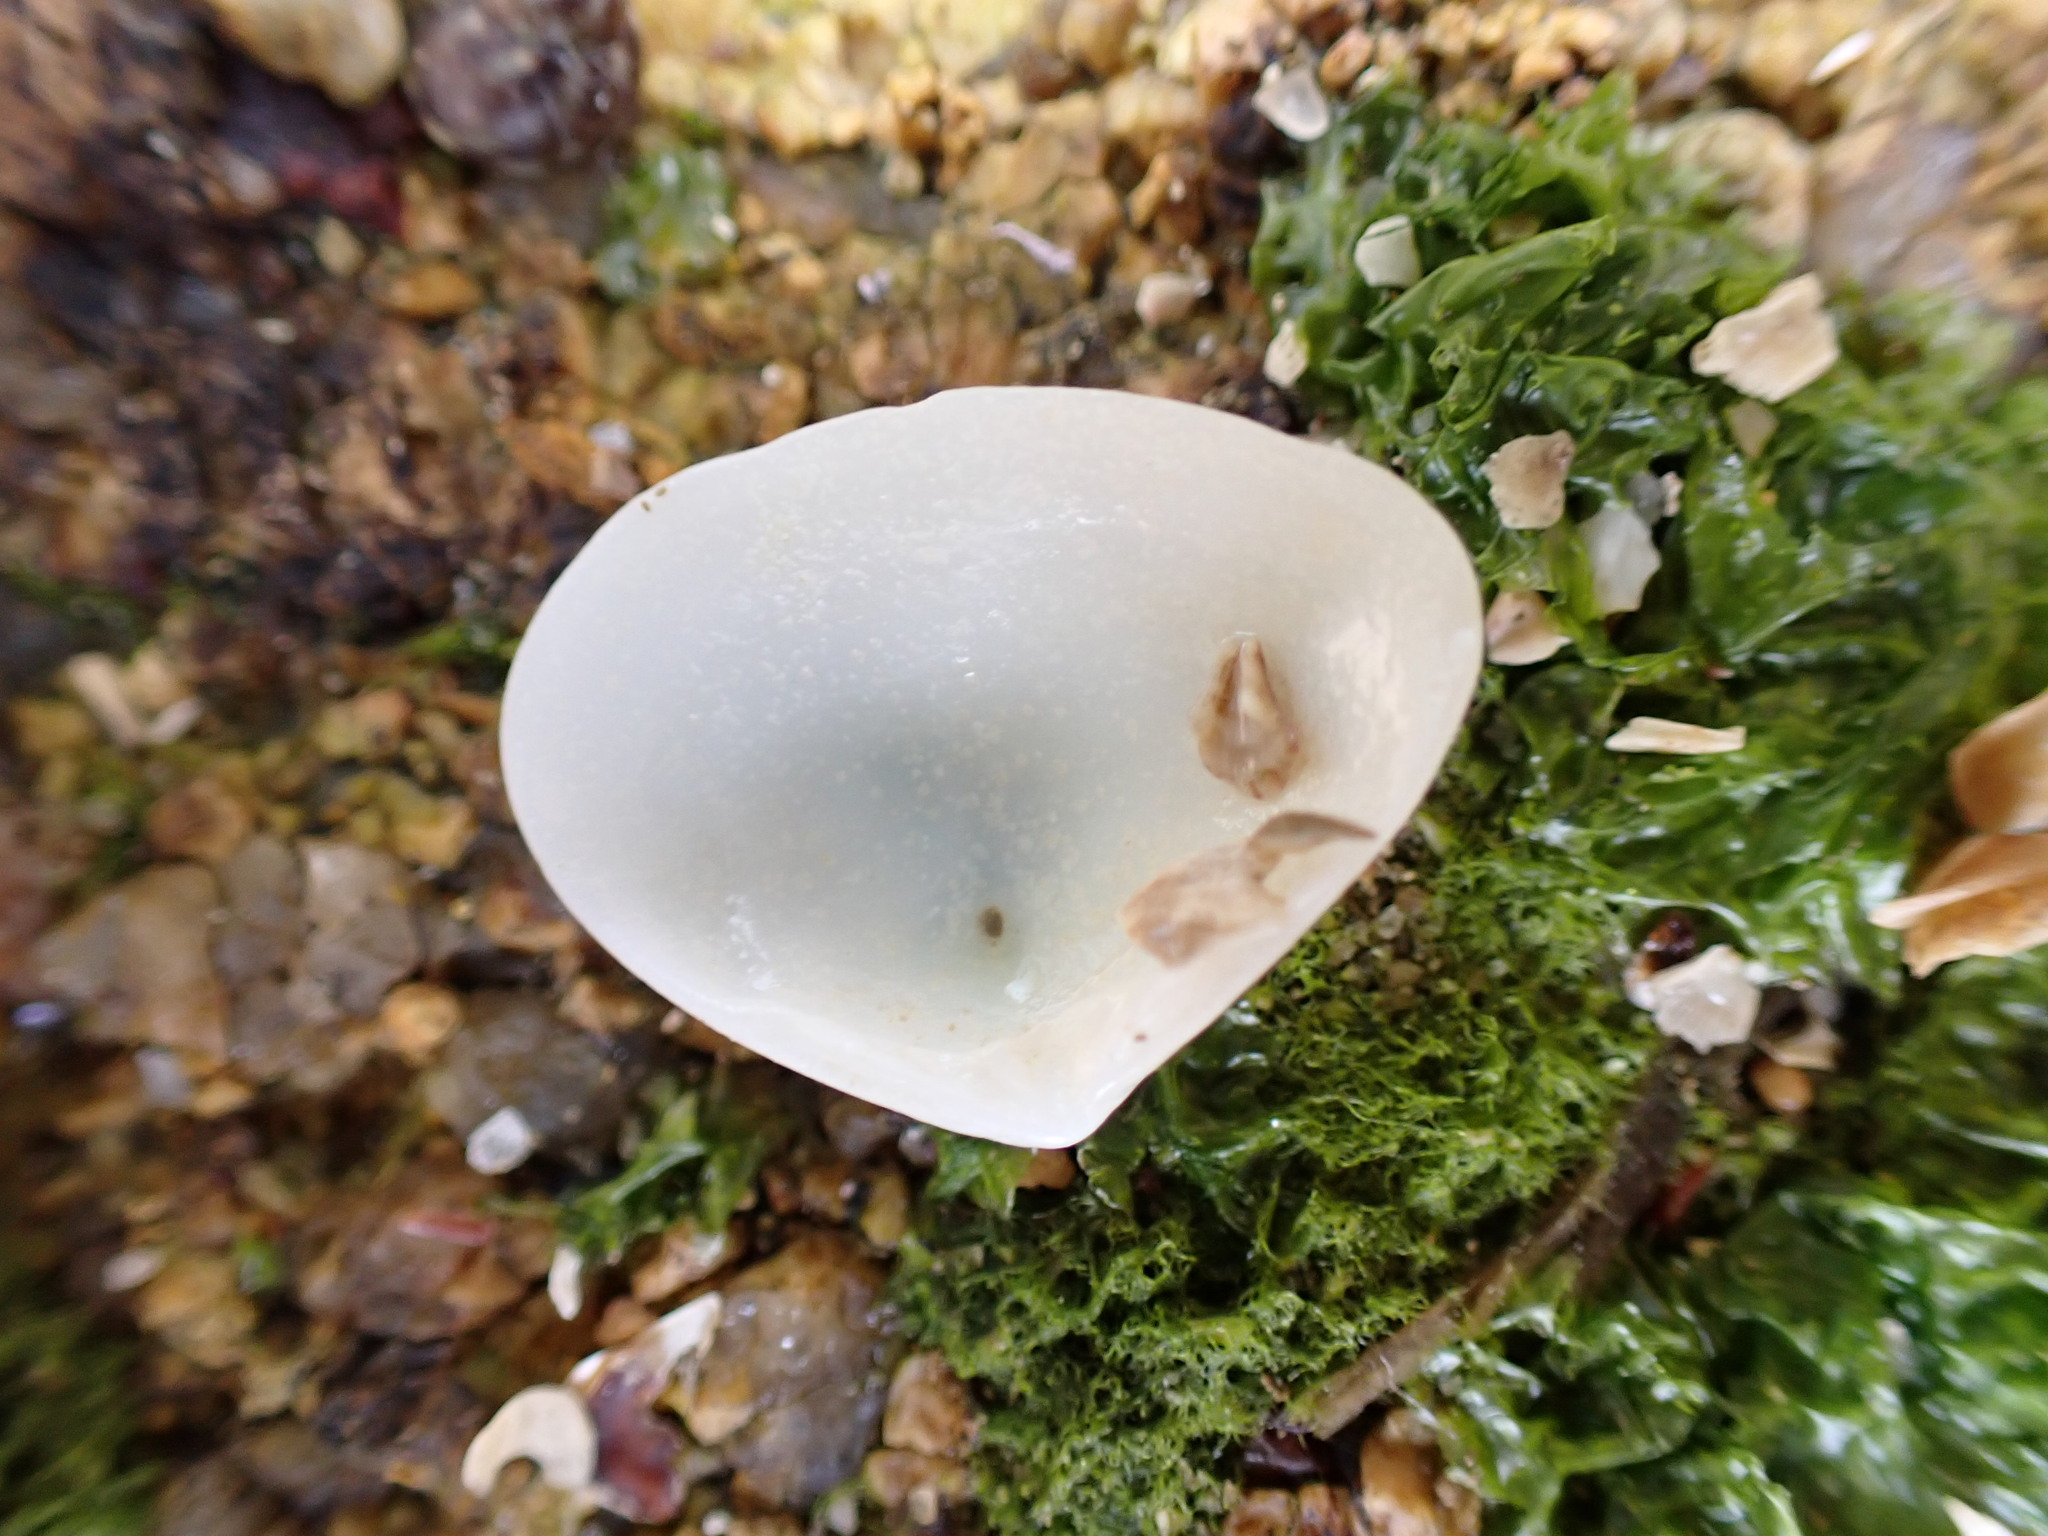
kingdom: Animalia
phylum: Mollusca
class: Bivalvia
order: Venerida
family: Mesodesmatidae
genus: Atactodea
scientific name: Atactodea striata
